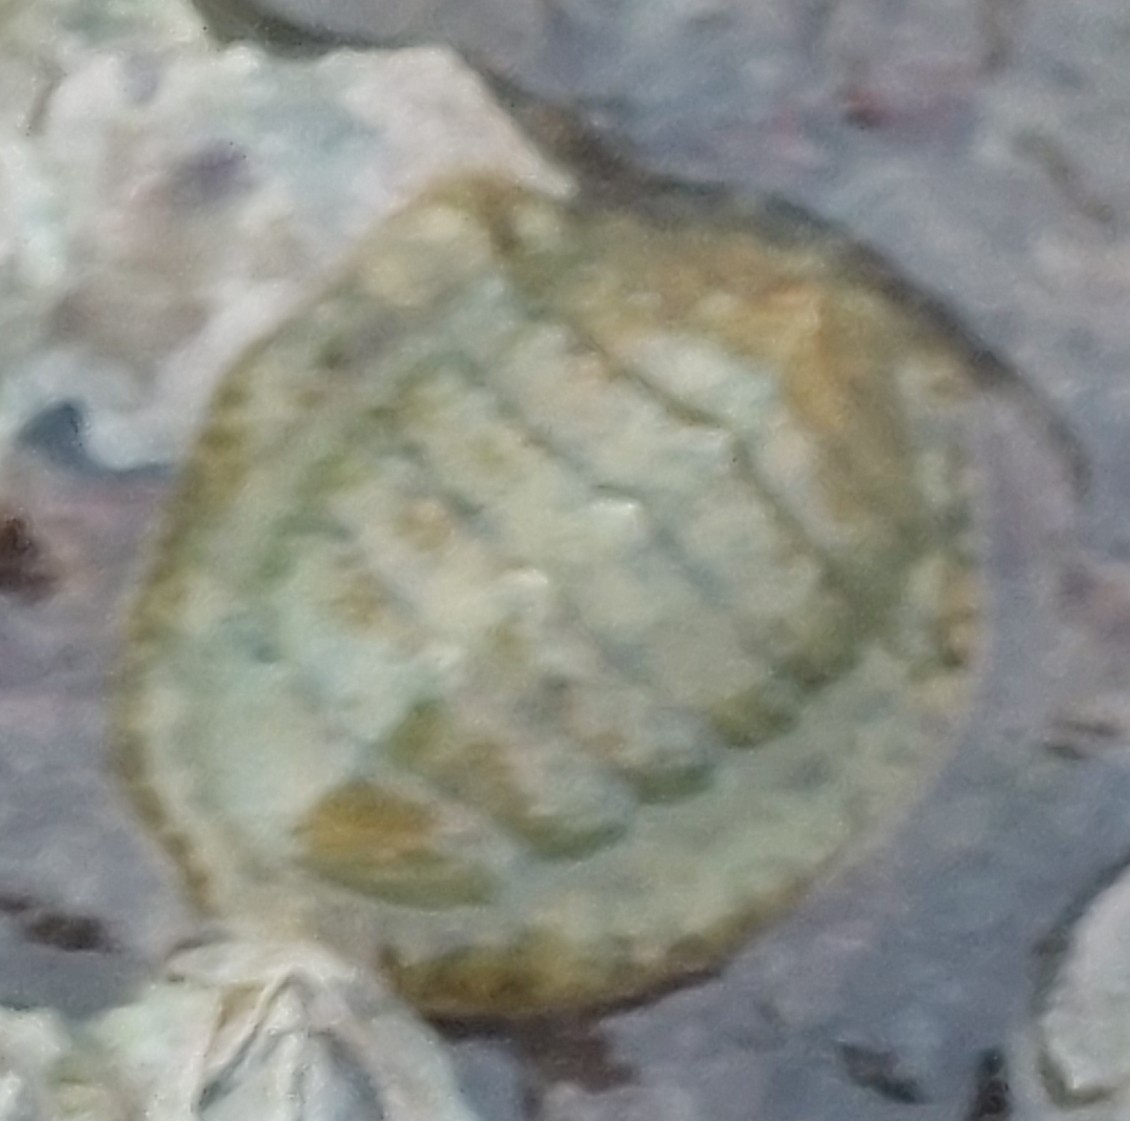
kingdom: Animalia
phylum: Mollusca
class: Polyplacophora
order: Chitonida
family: Tonicellidae
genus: Lepidochitona
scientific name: Lepidochitona cinerea
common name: Cinereous chiton
